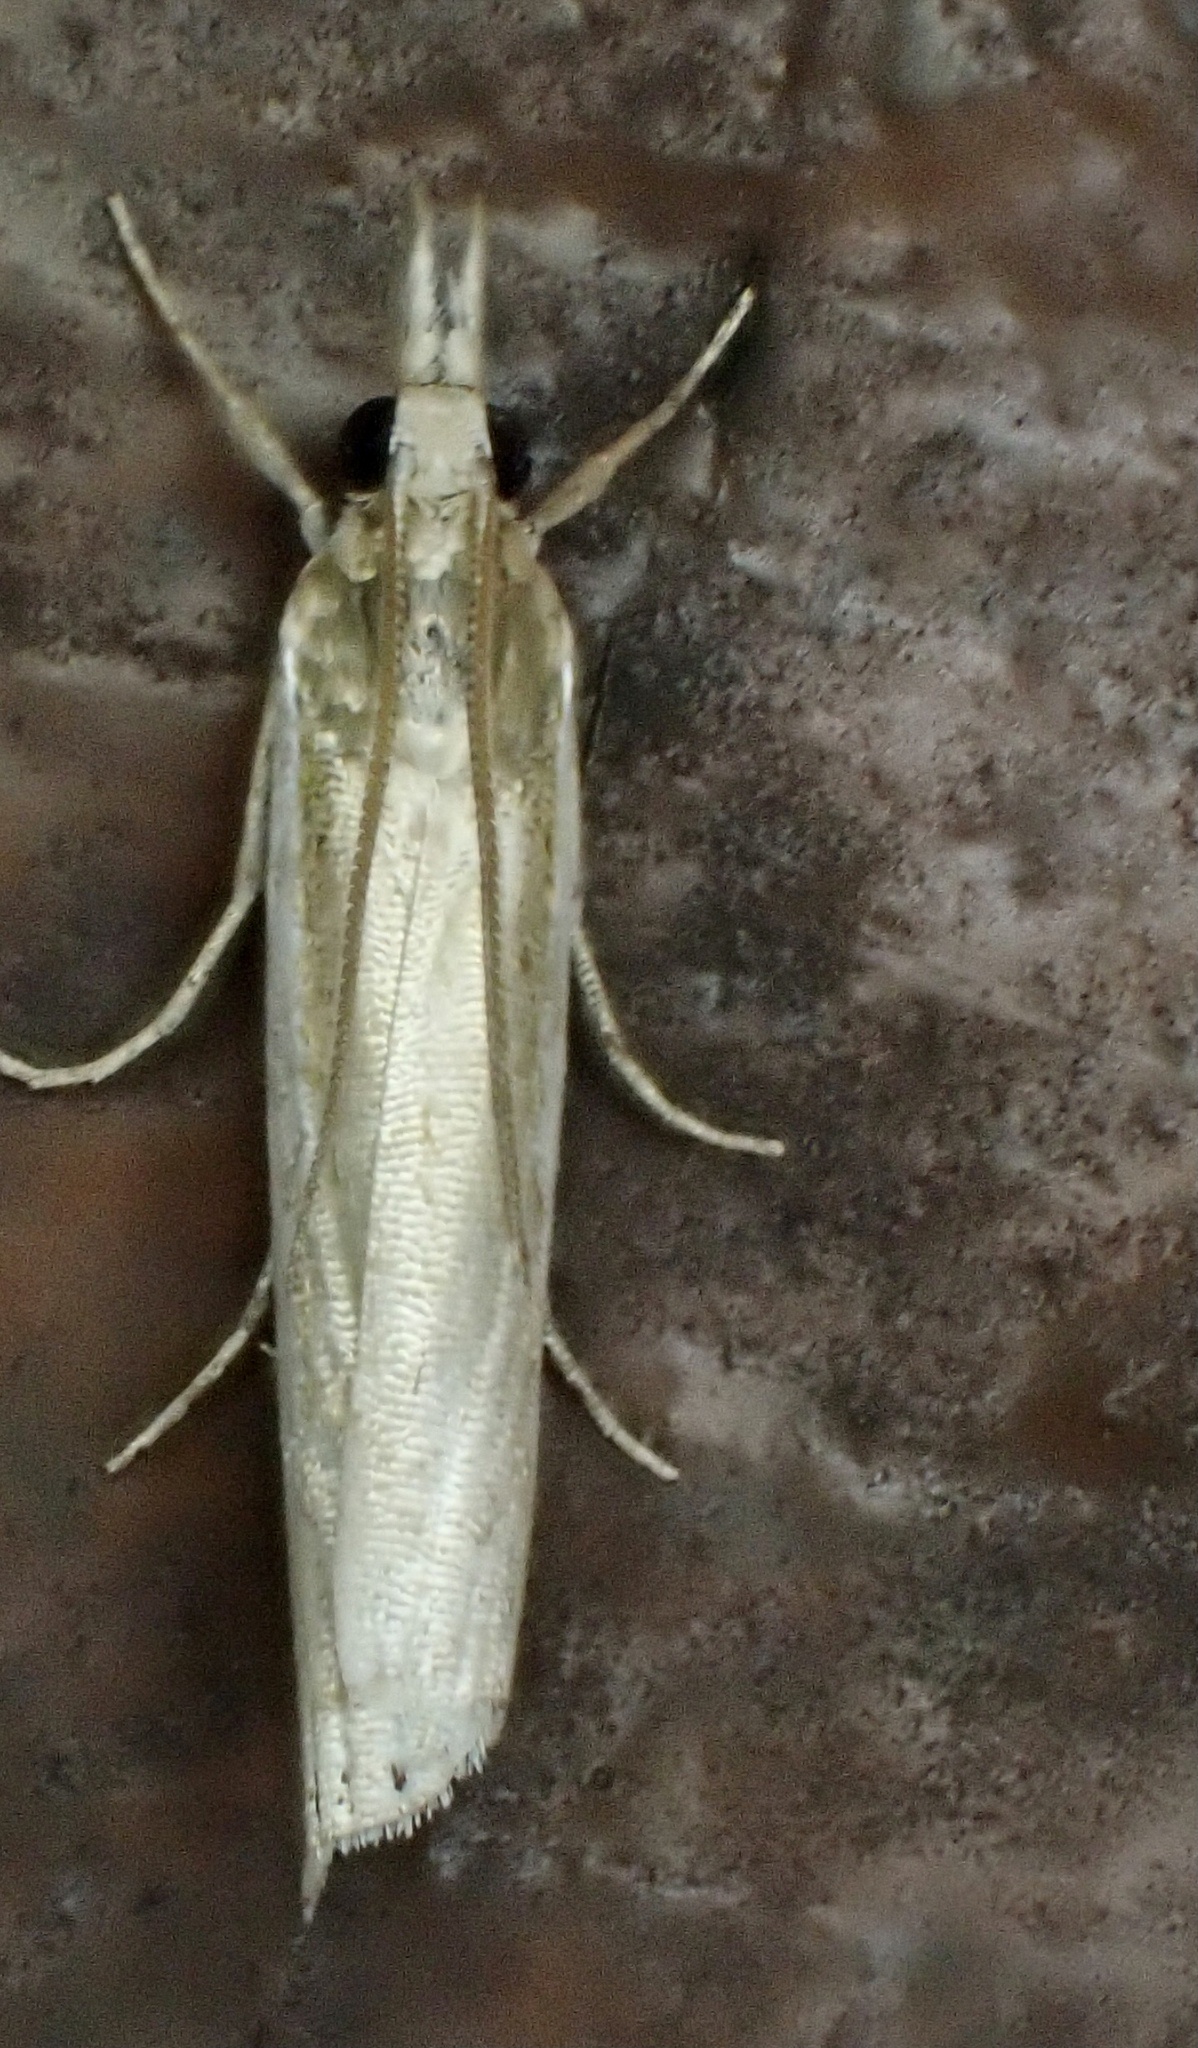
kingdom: Animalia
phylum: Arthropoda
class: Insecta
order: Lepidoptera
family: Crambidae
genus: Crambus
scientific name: Crambus praefectellus
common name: Common grass-veneer
